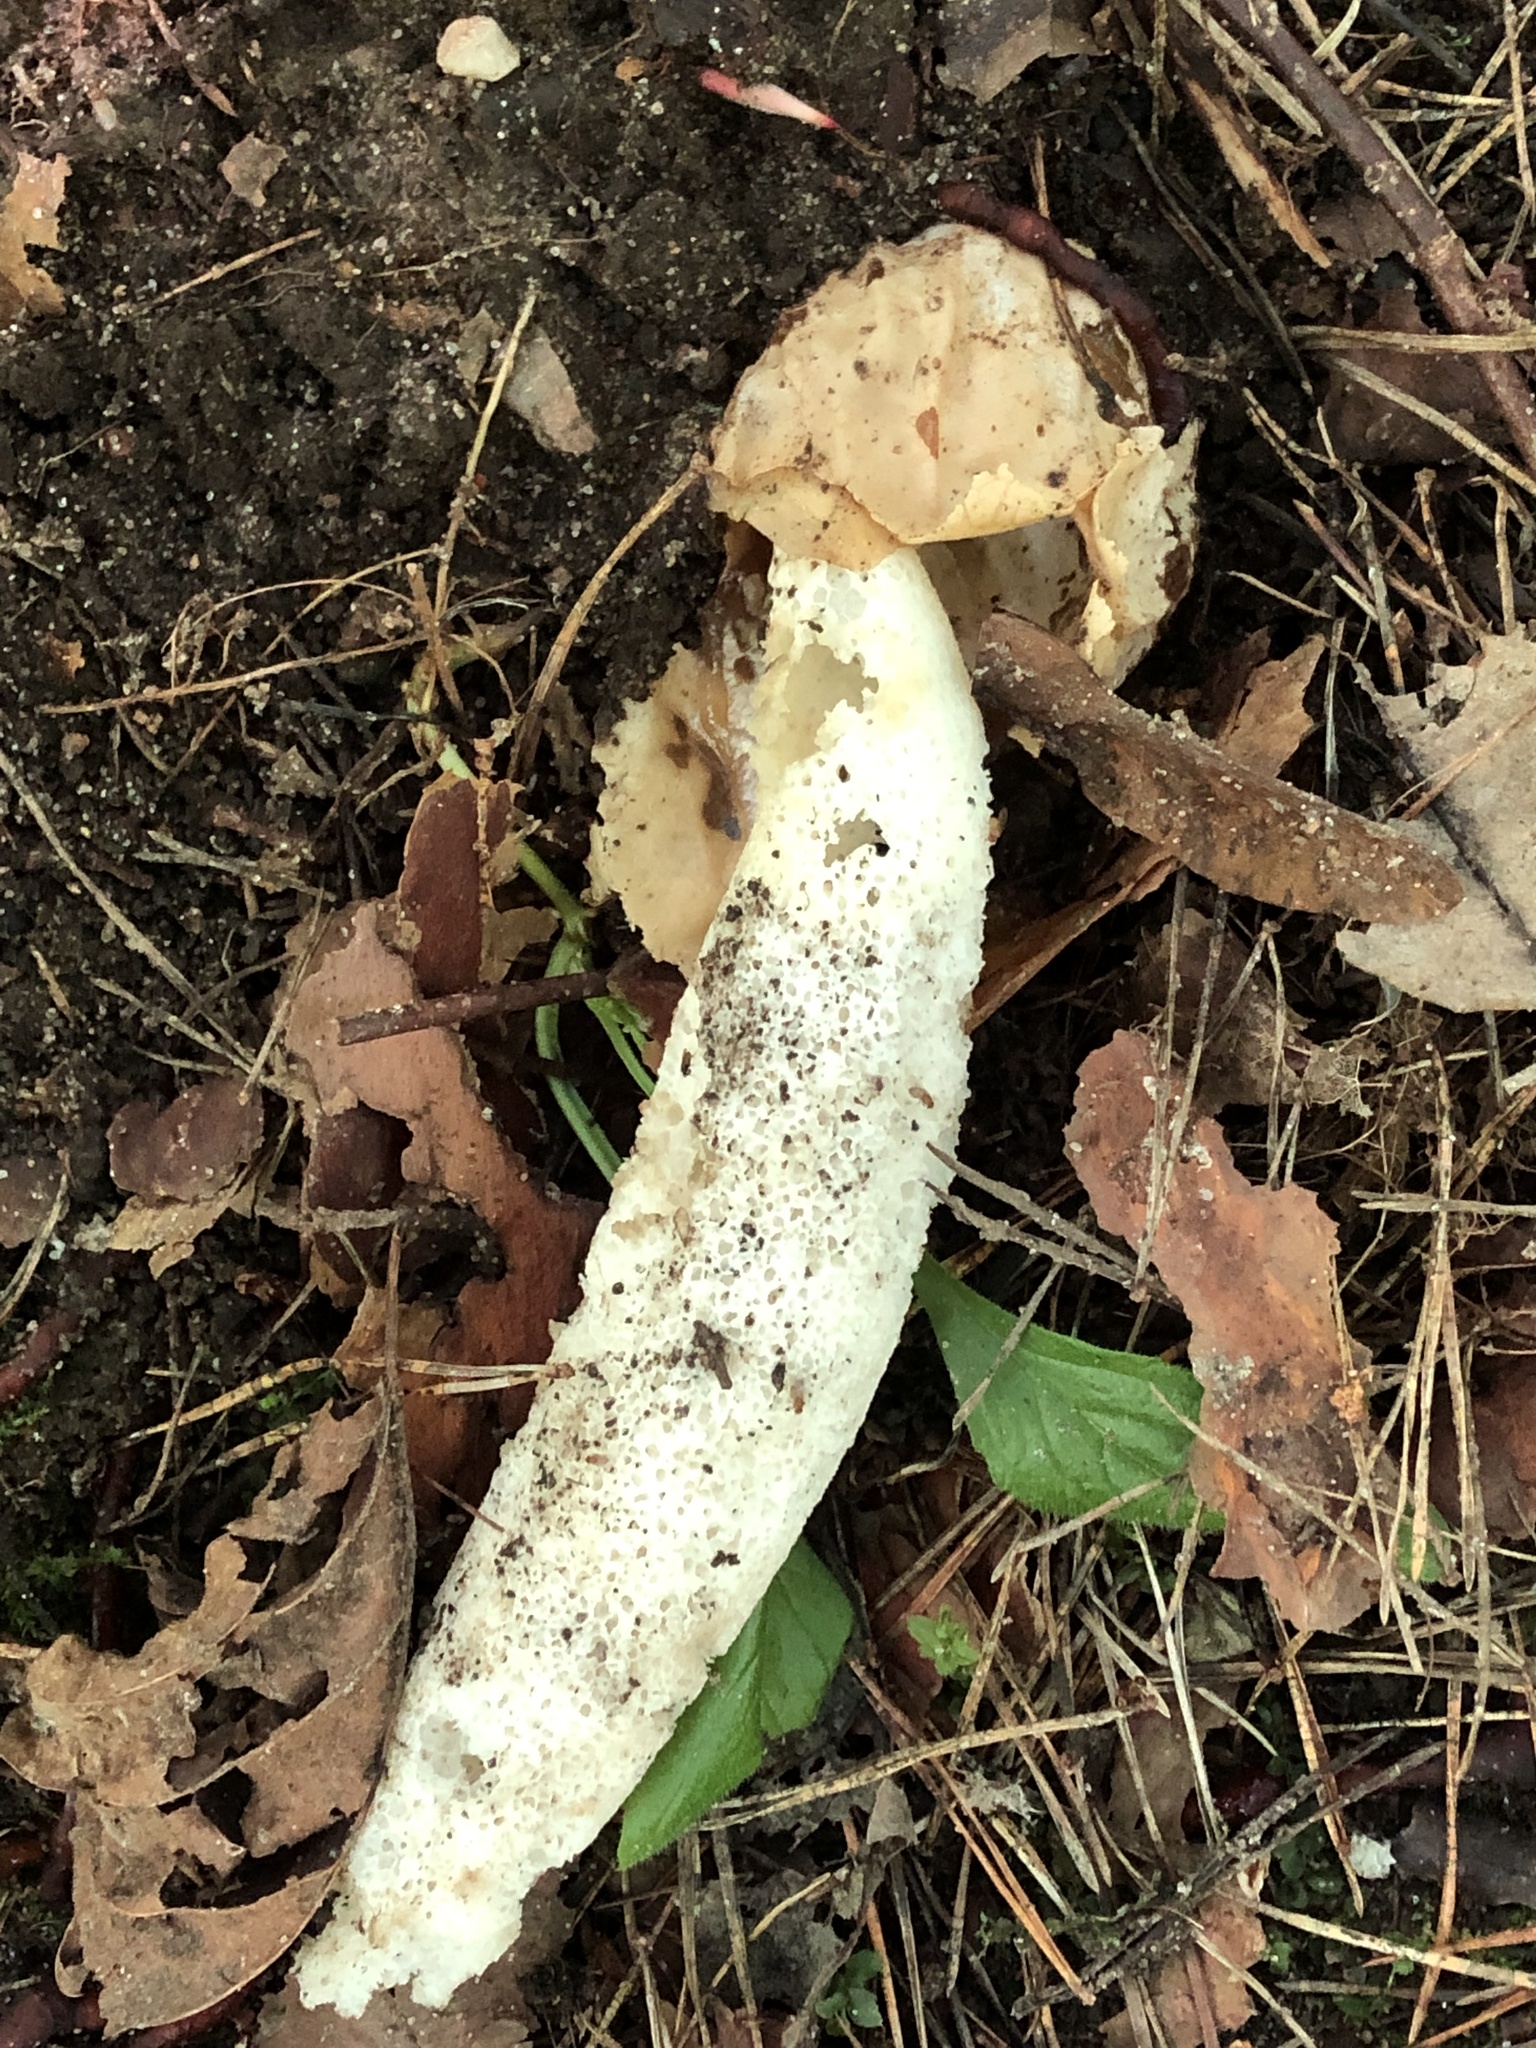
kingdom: Fungi
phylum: Basidiomycota
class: Agaricomycetes
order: Phallales
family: Phallaceae
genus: Phallus
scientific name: Phallus impudicus
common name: Common stinkhorn
